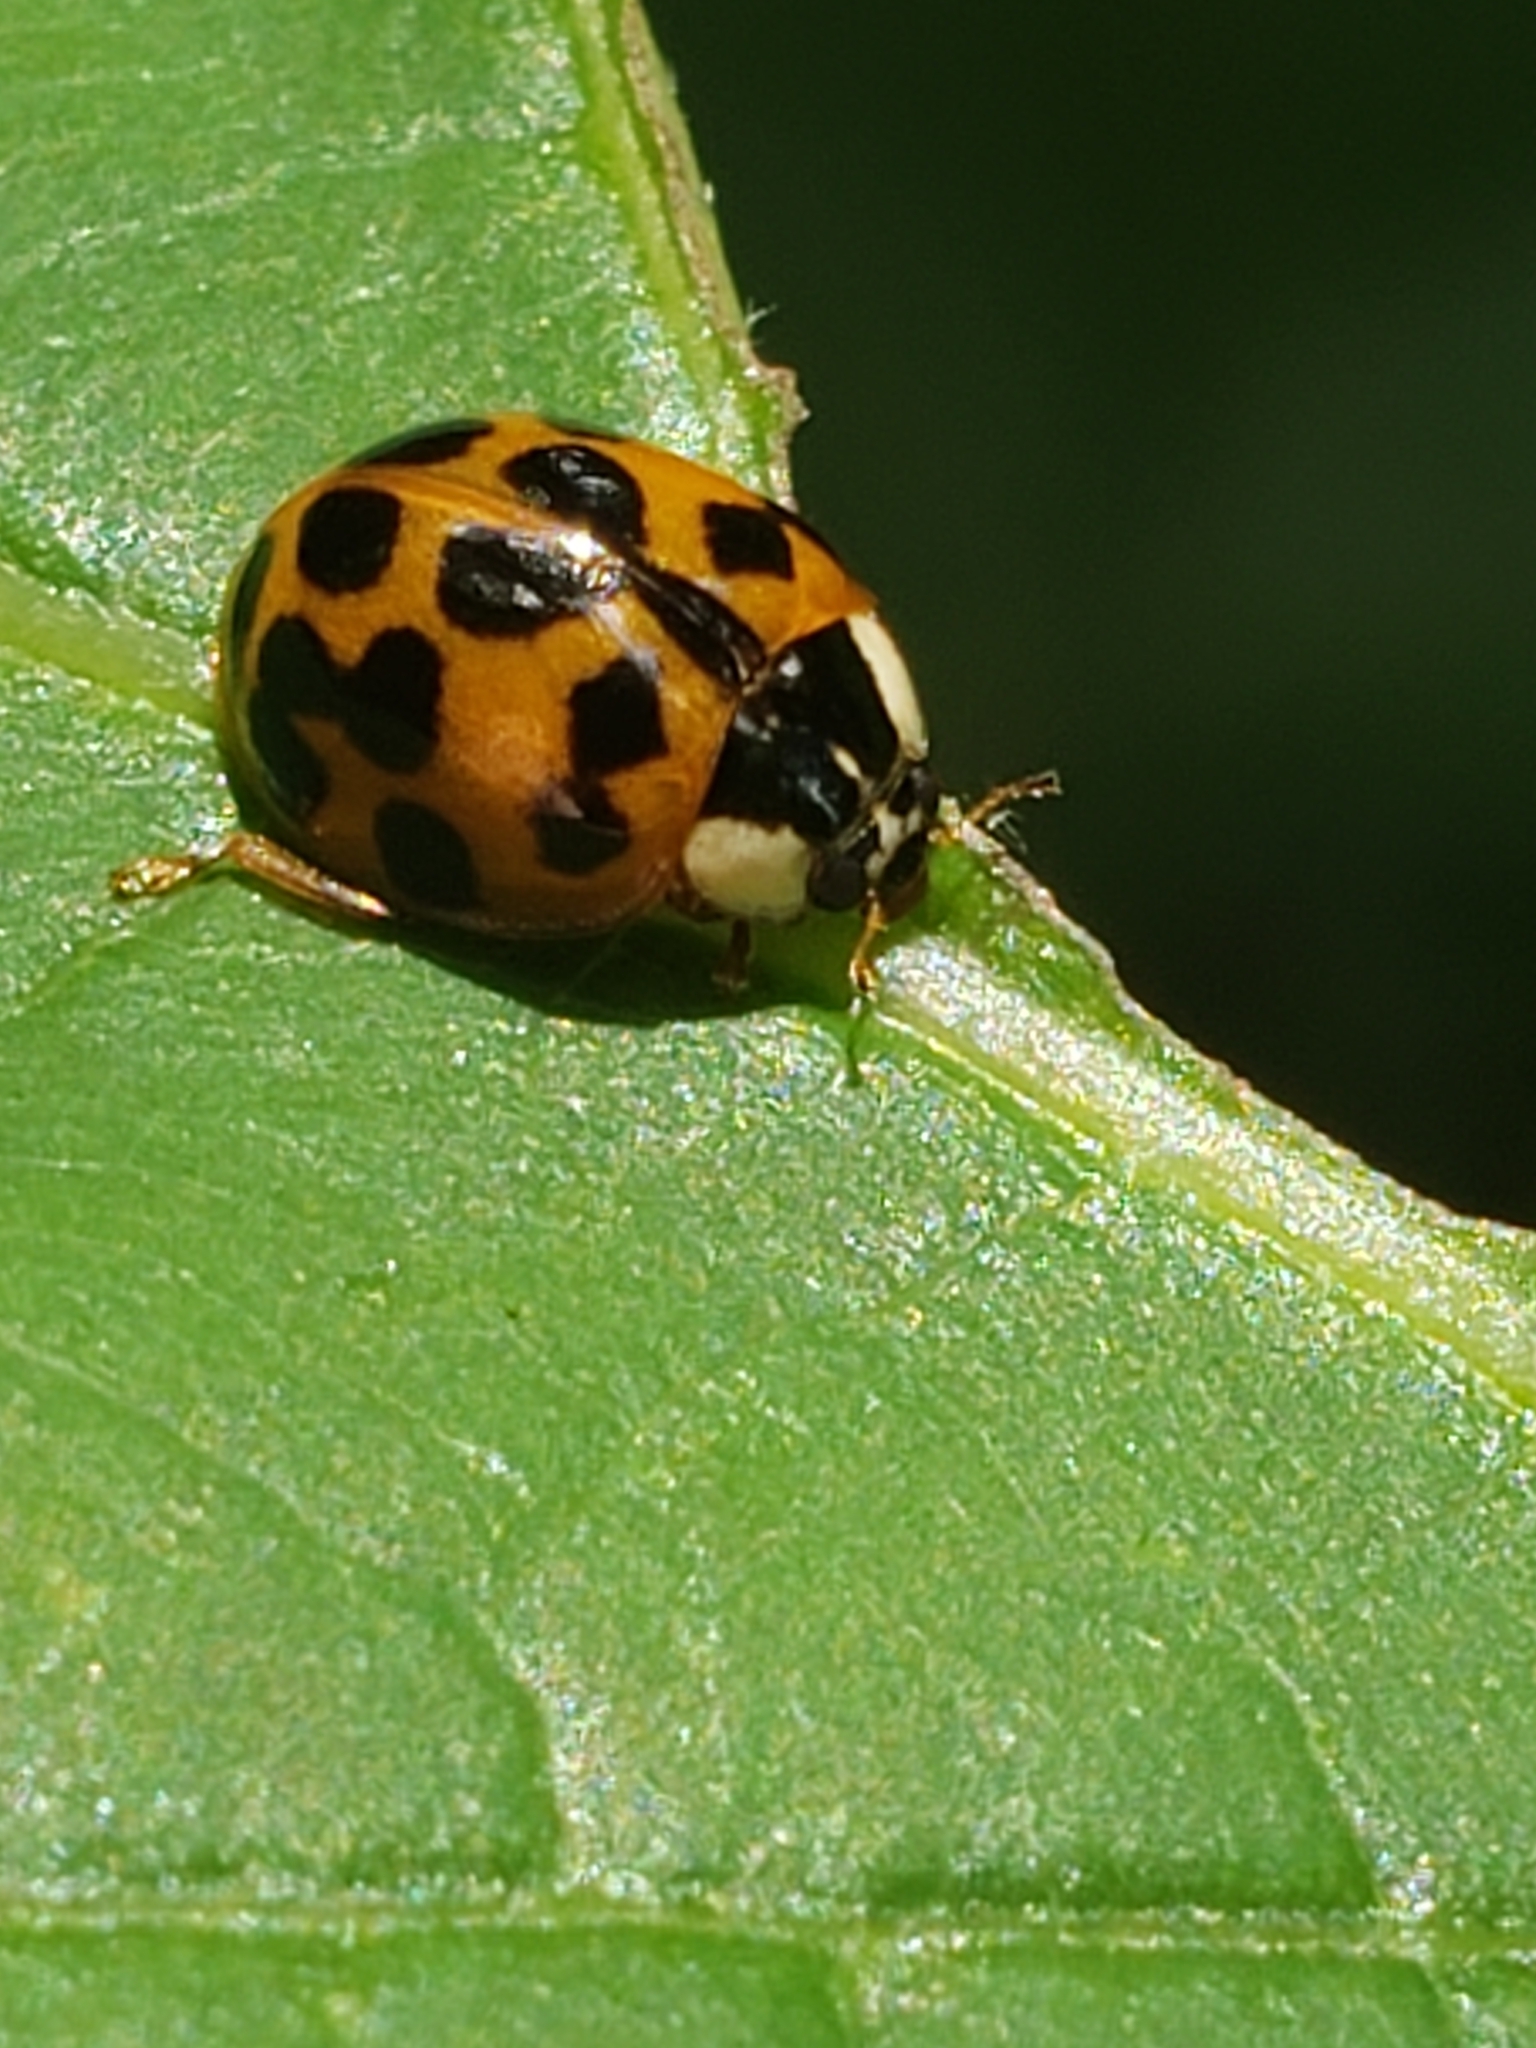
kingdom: Animalia
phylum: Arthropoda
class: Insecta
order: Coleoptera
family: Coccinellidae
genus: Harmonia
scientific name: Harmonia axyridis
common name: Harlequin ladybird
